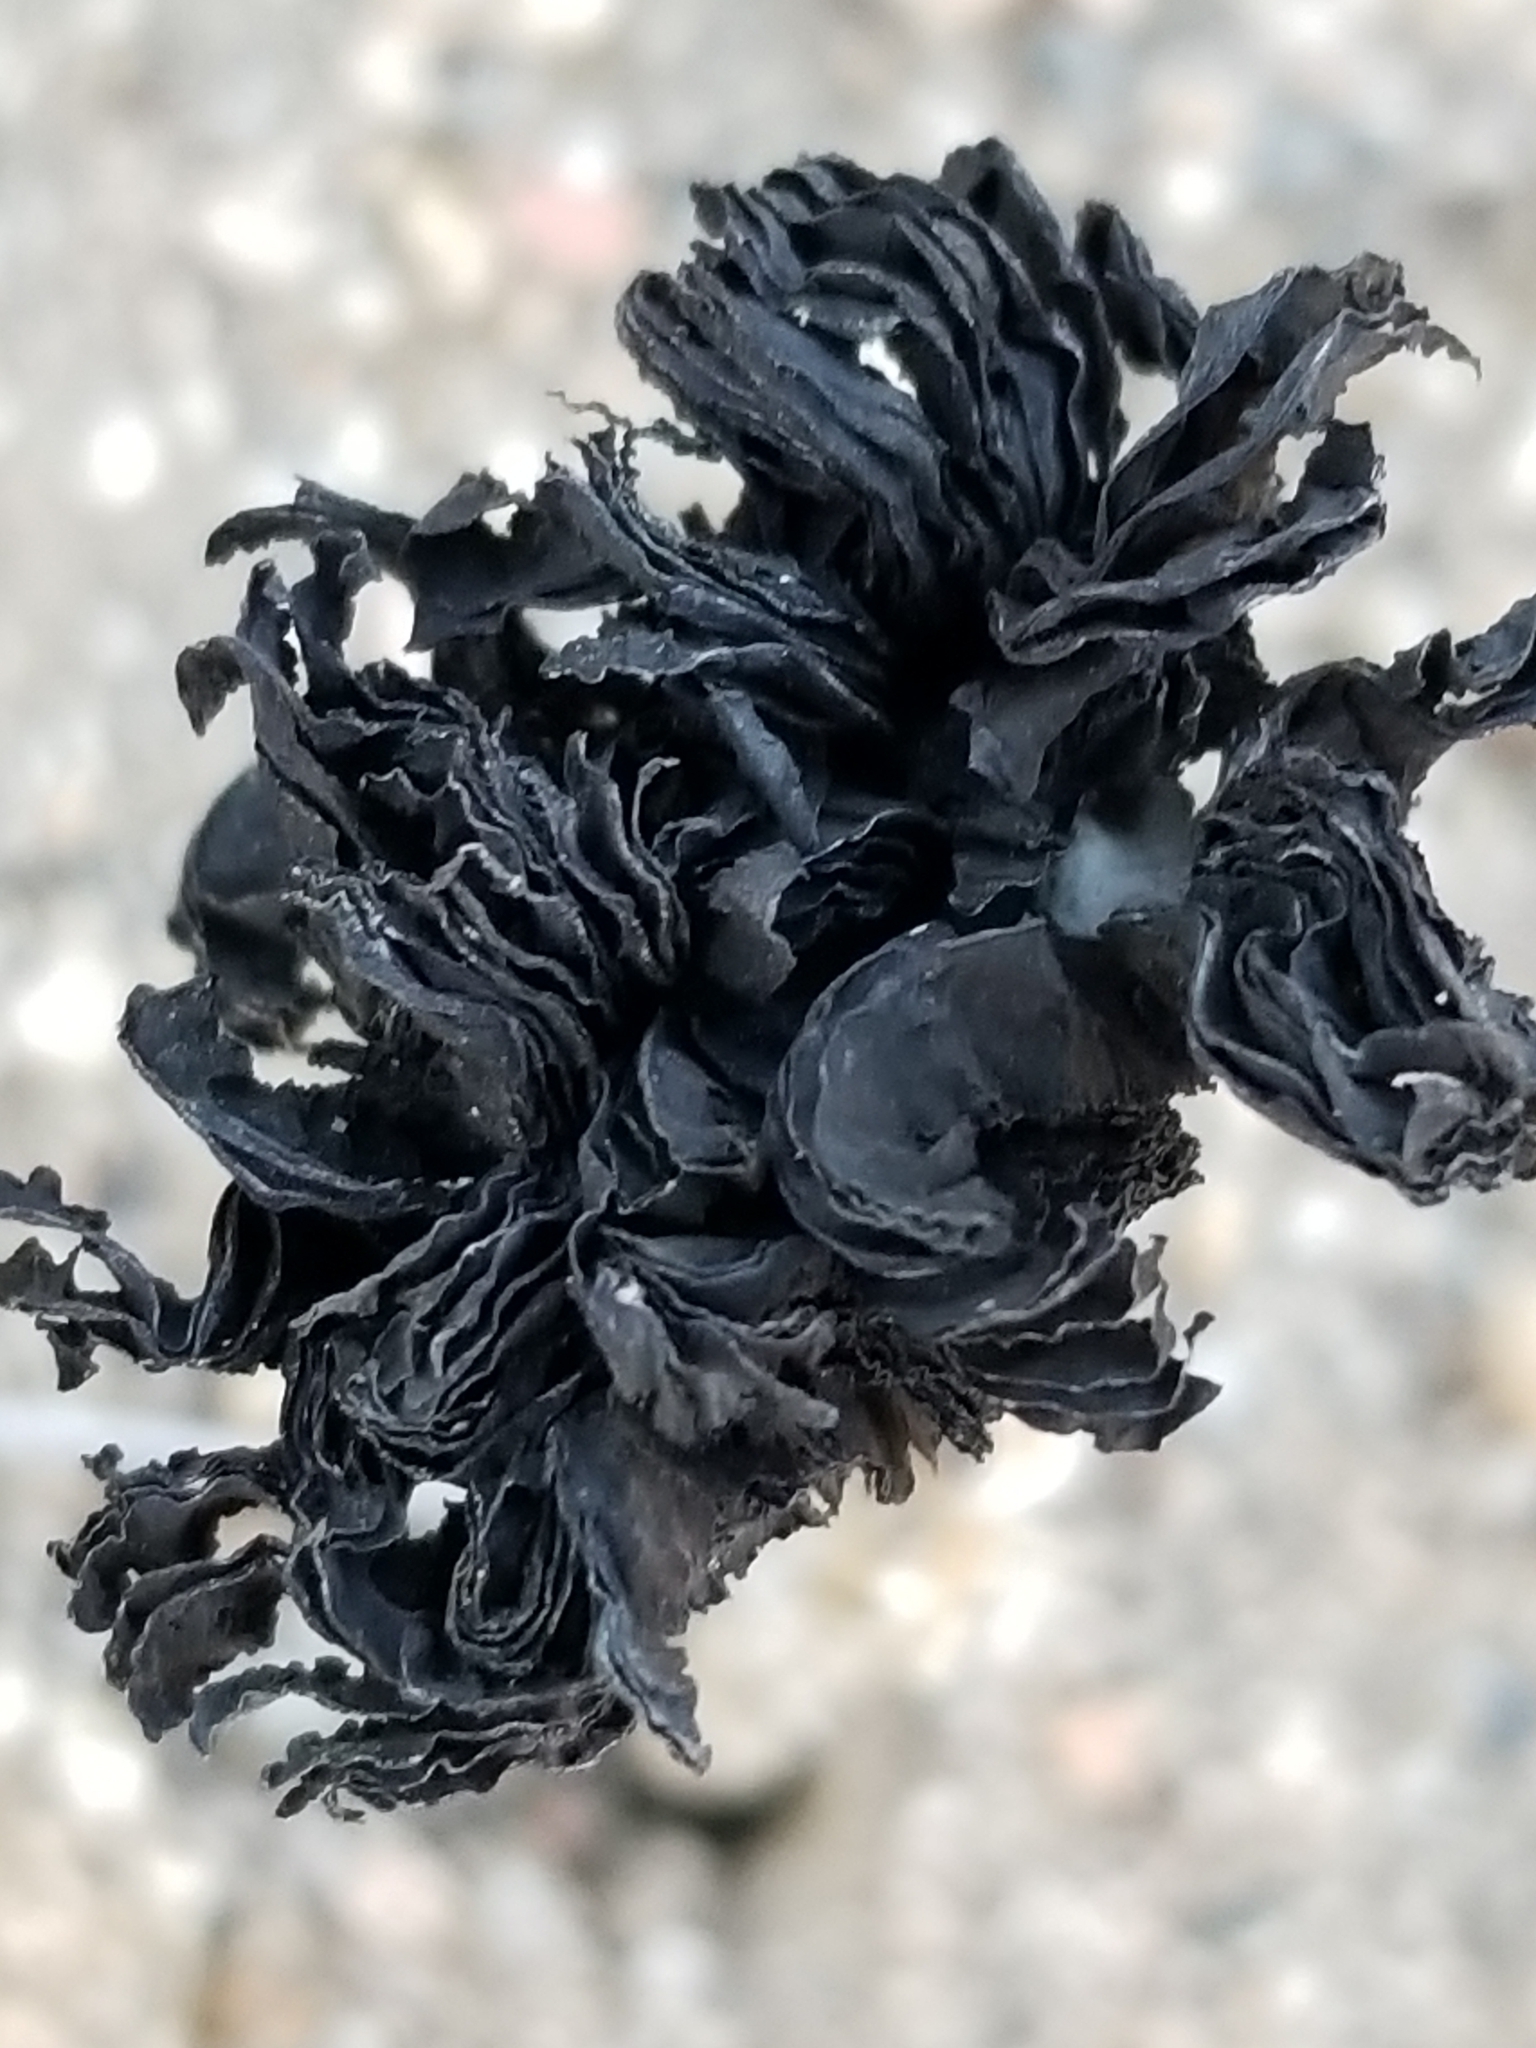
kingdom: Fungi
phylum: Basidiomycota
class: Agaricomycetes
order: Agaricales
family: Agaricaceae
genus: Montagnea
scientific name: Montagnea arenaria
